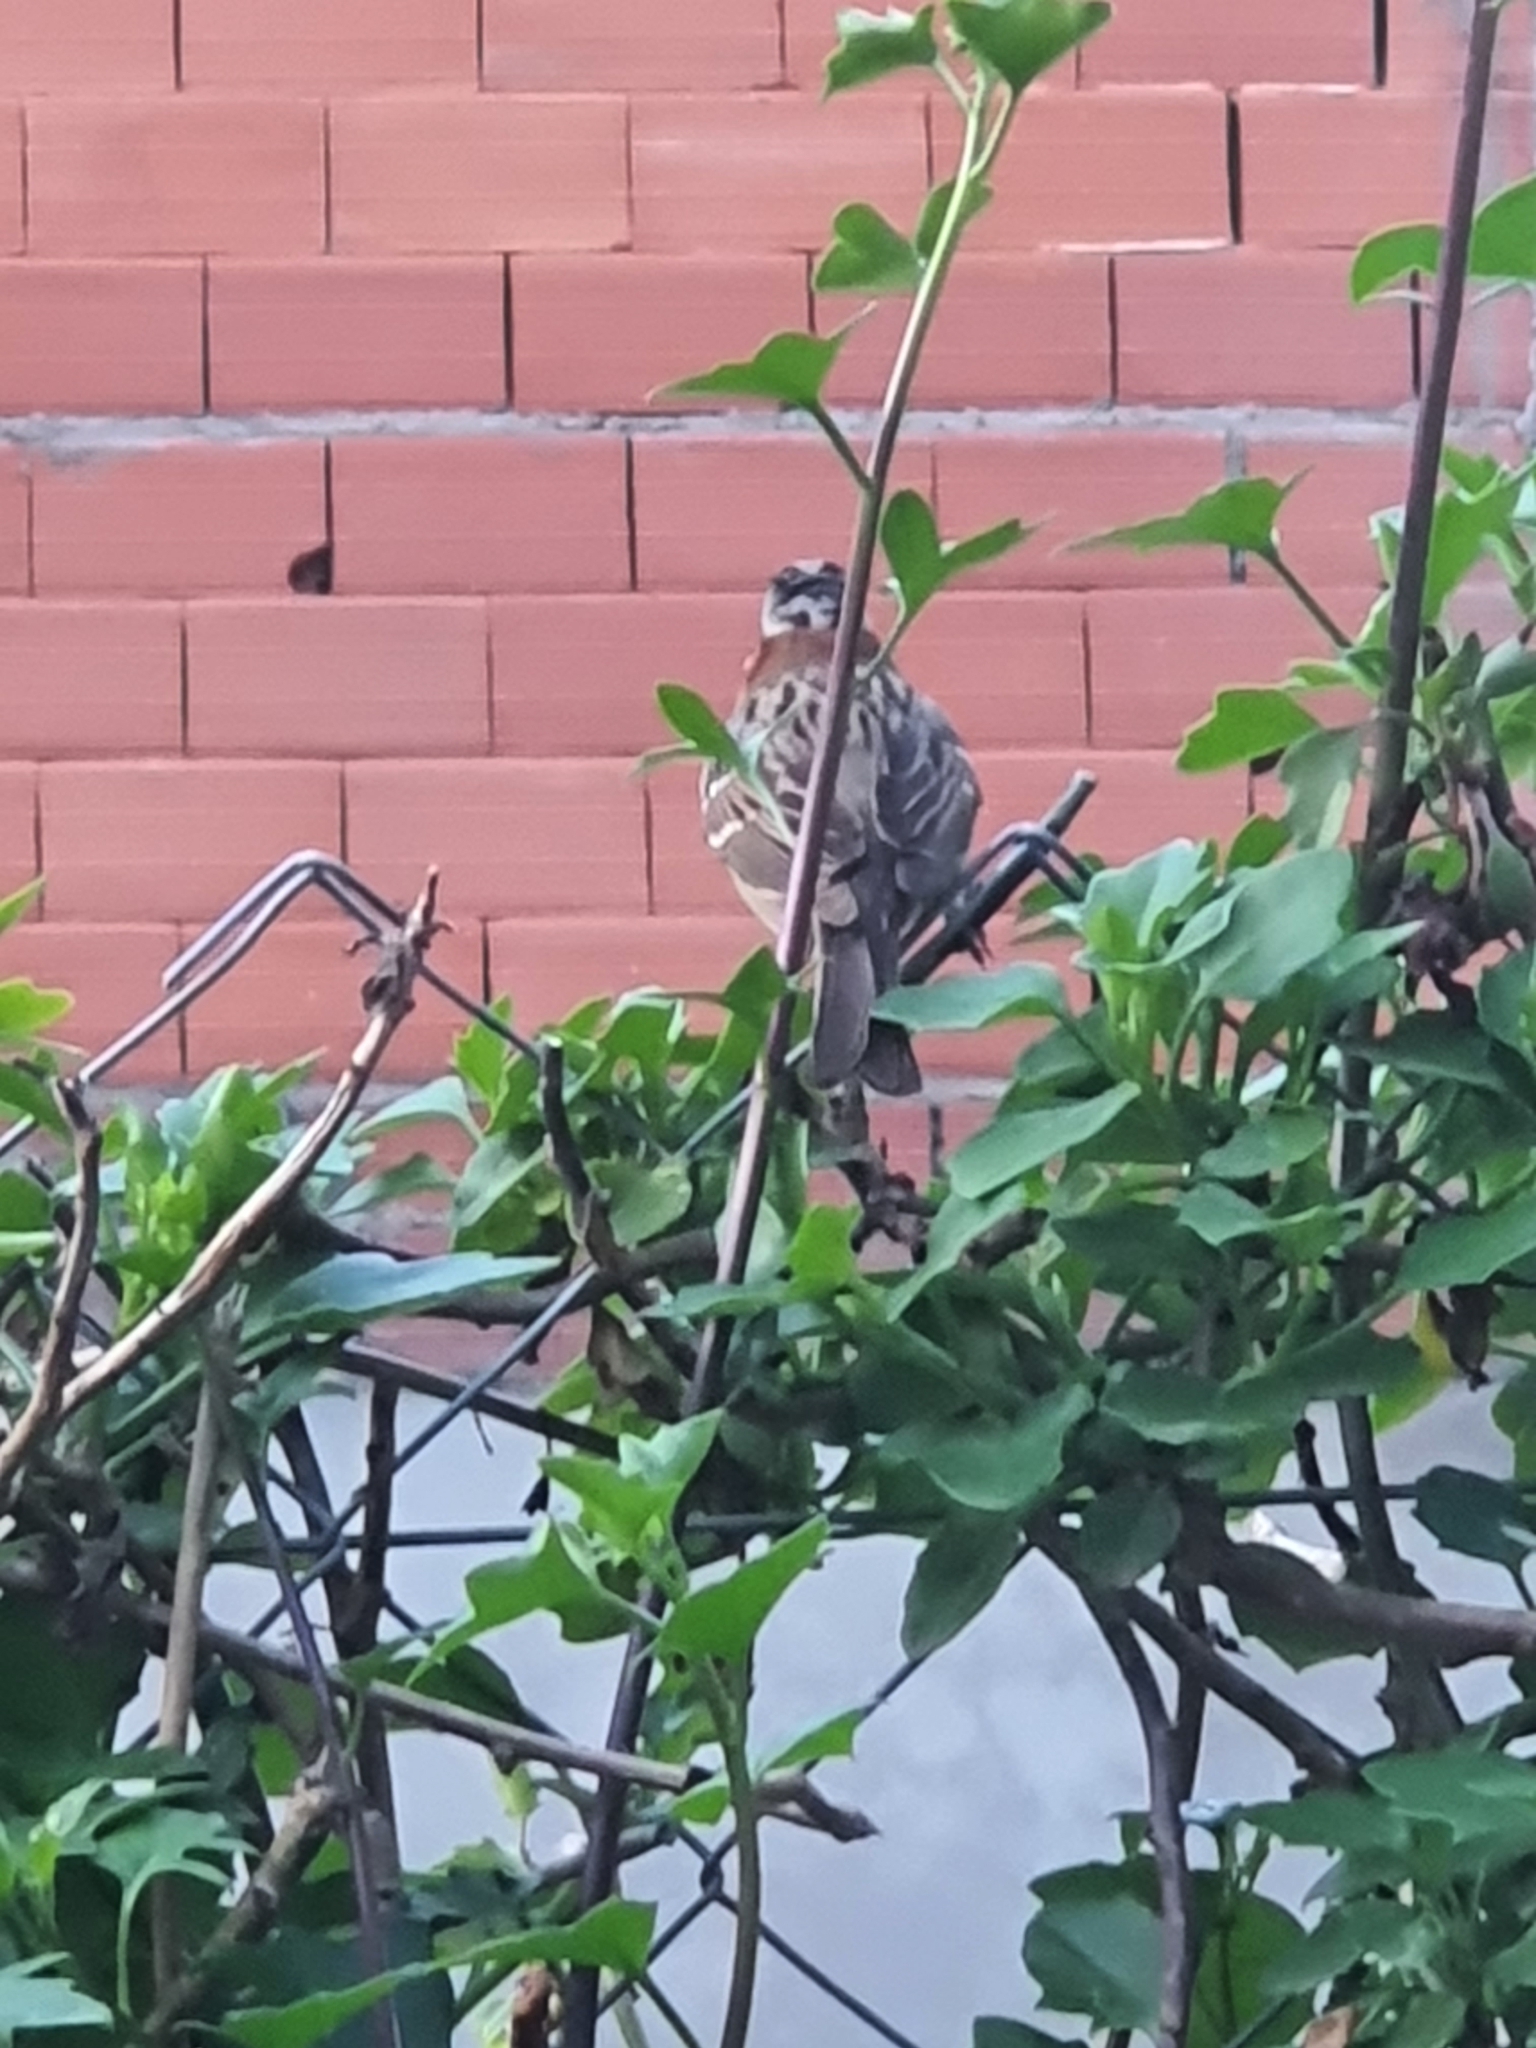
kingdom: Animalia
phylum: Chordata
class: Aves
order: Passeriformes
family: Passerellidae
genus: Zonotrichia
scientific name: Zonotrichia capensis
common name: Rufous-collared sparrow
